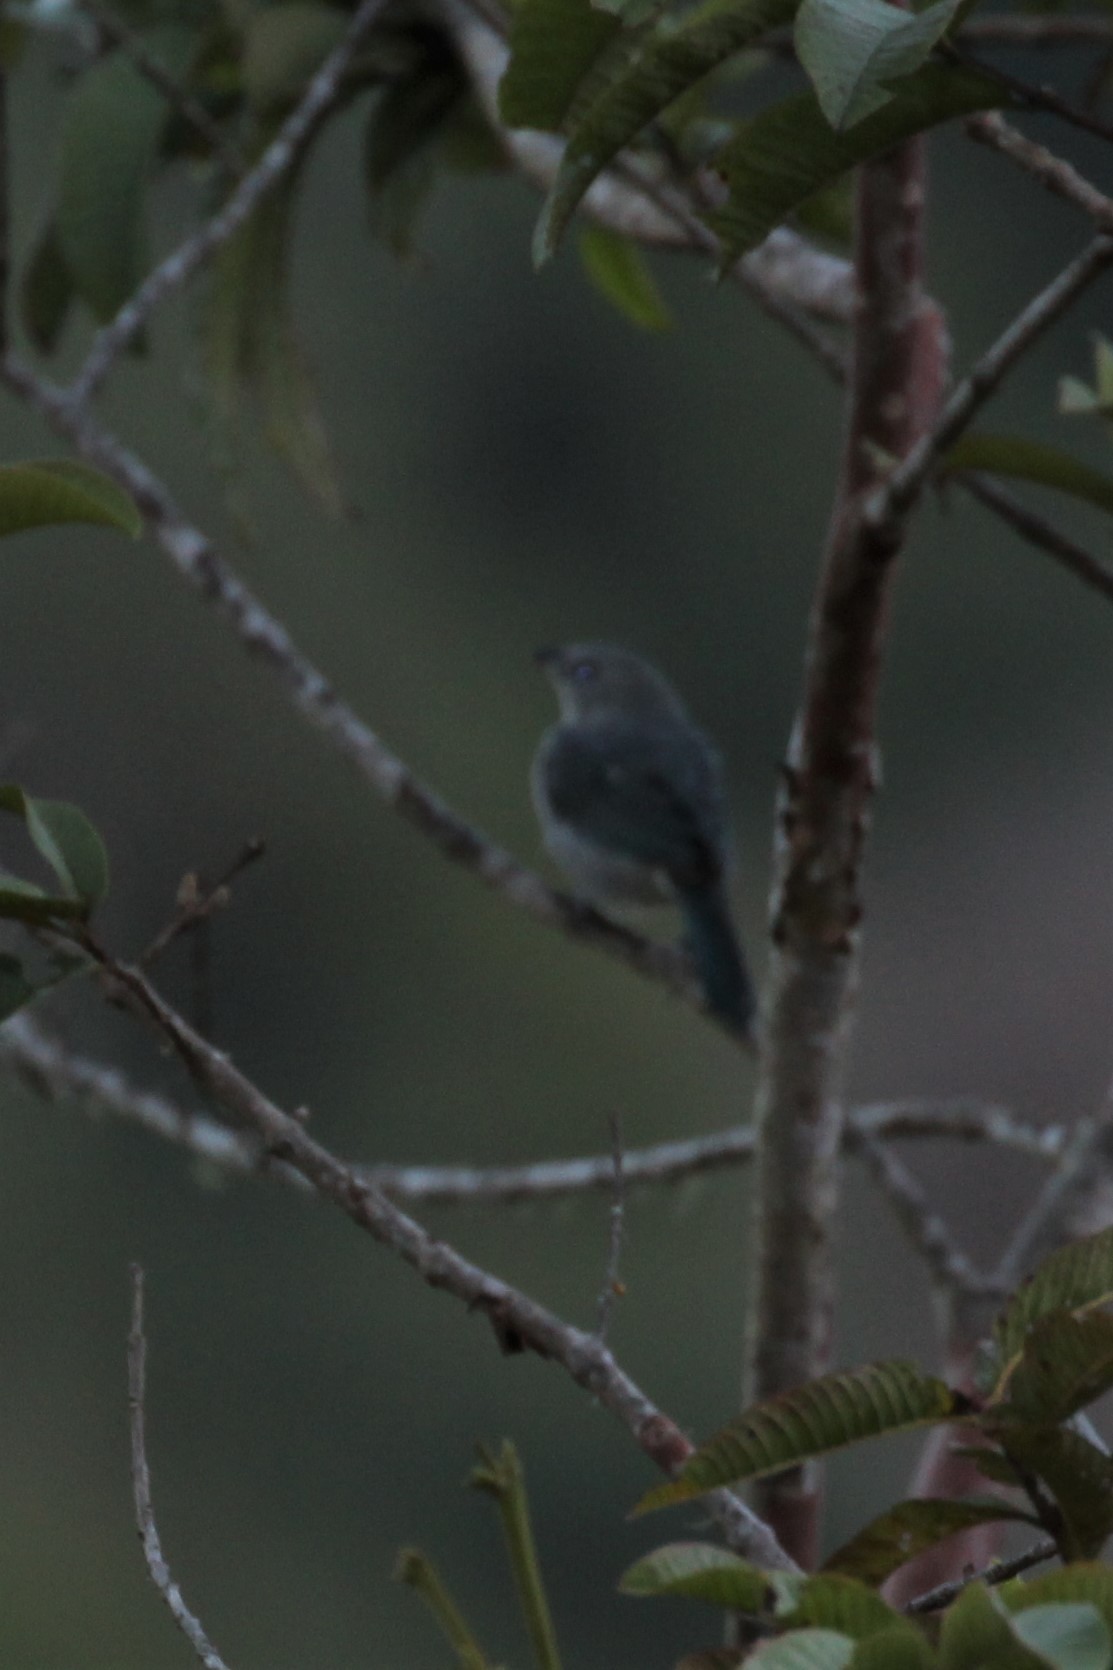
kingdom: Animalia
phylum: Chordata
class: Aves
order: Passeriformes
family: Thraupidae
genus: Thraupis
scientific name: Thraupis episcopus
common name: Blue-grey tanager
